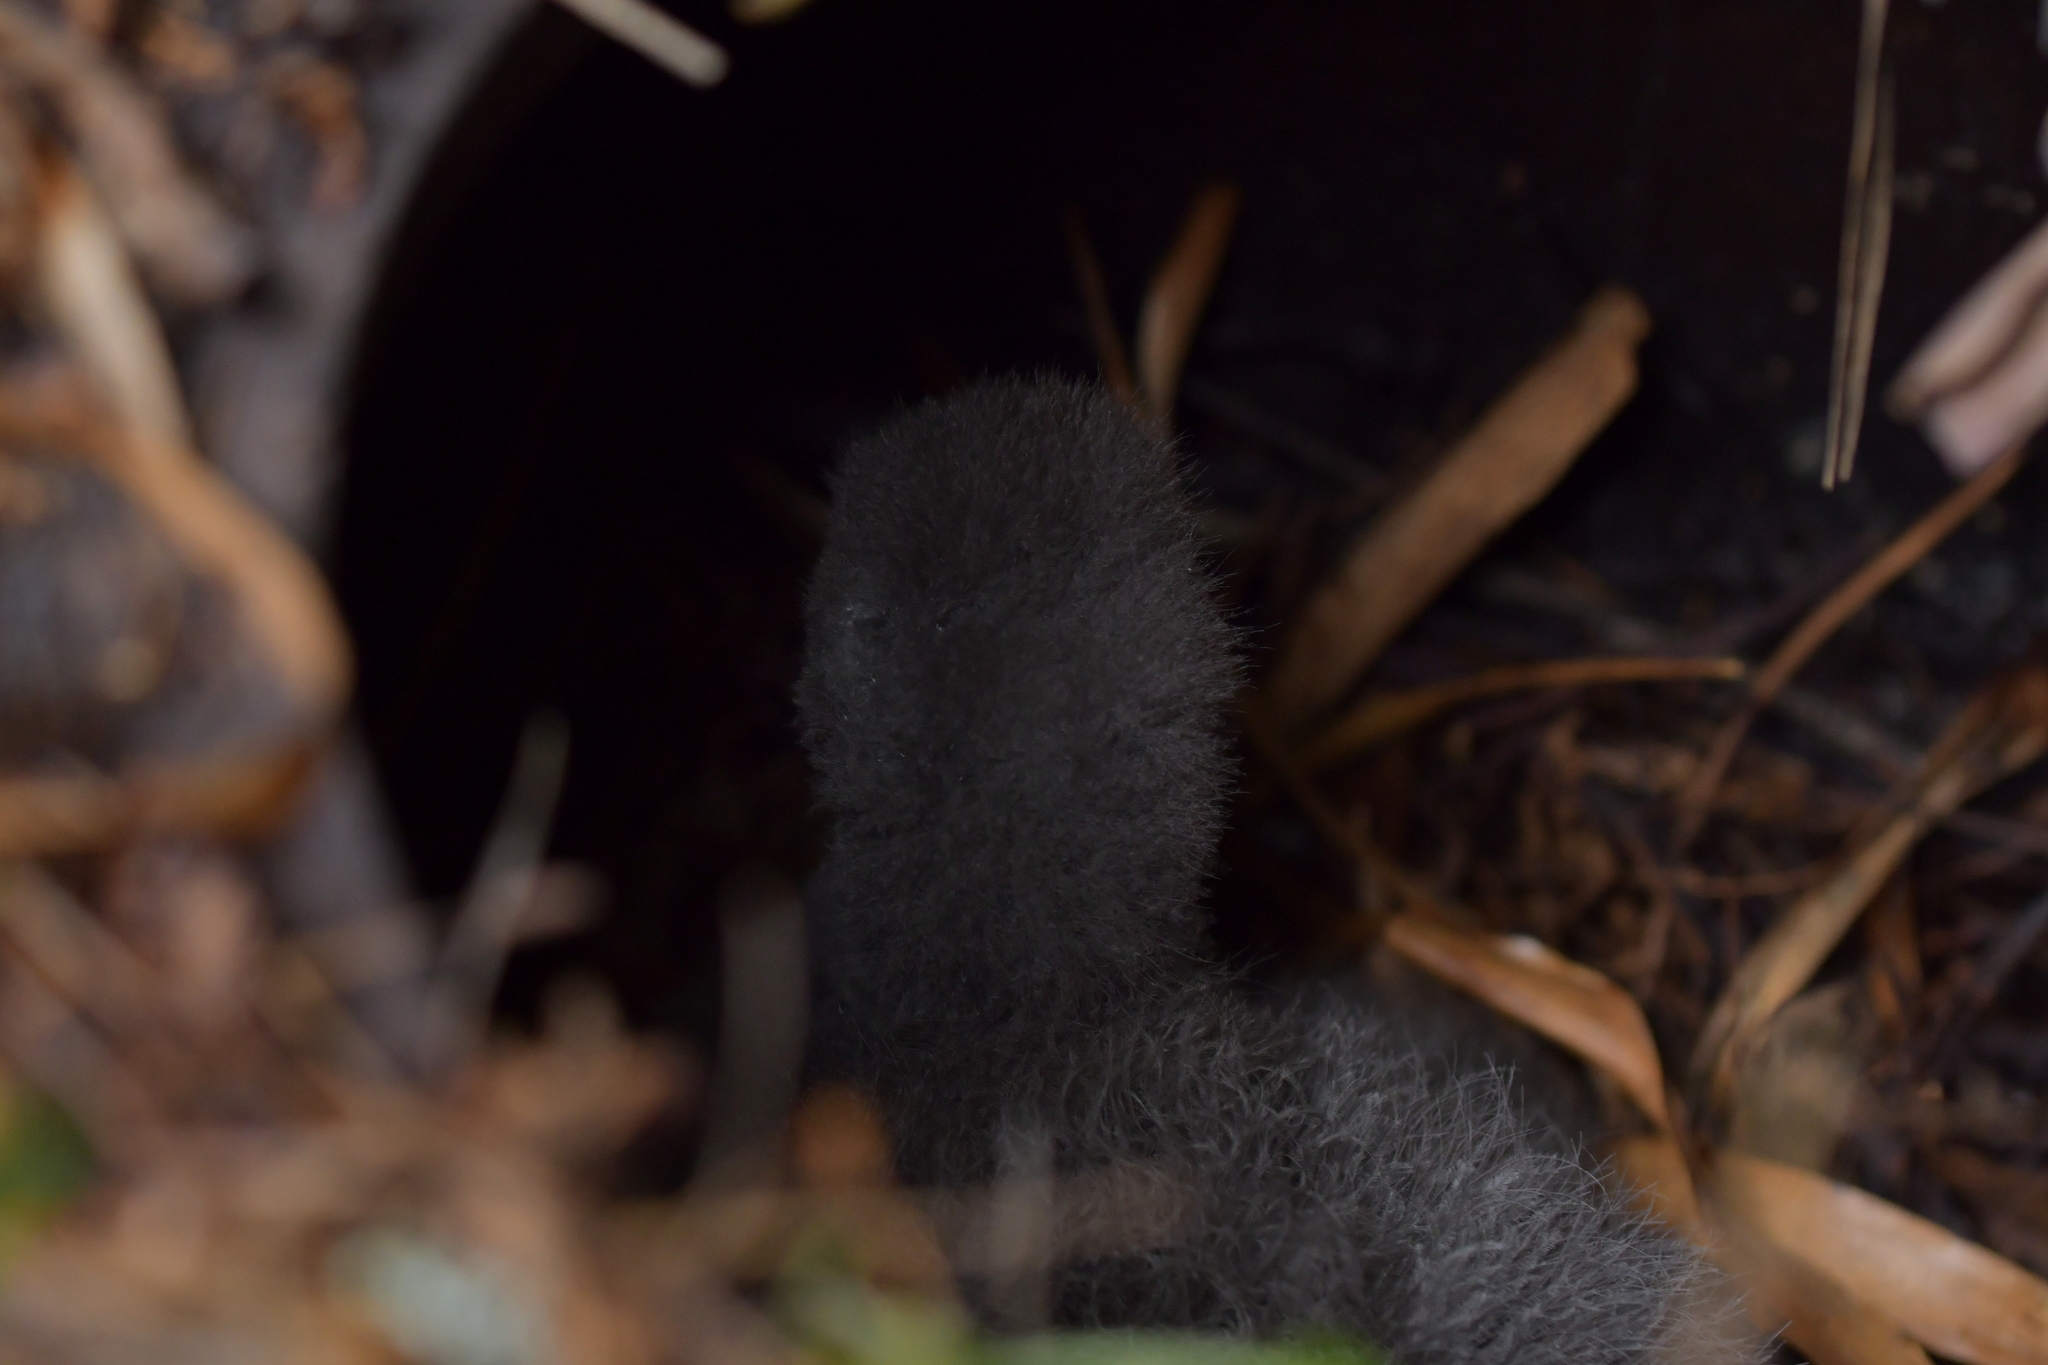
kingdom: Animalia
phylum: Chordata
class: Aves
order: Procellariiformes
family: Procellariidae
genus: Pterodroma
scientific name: Pterodroma magentae
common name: Magenta petrel
